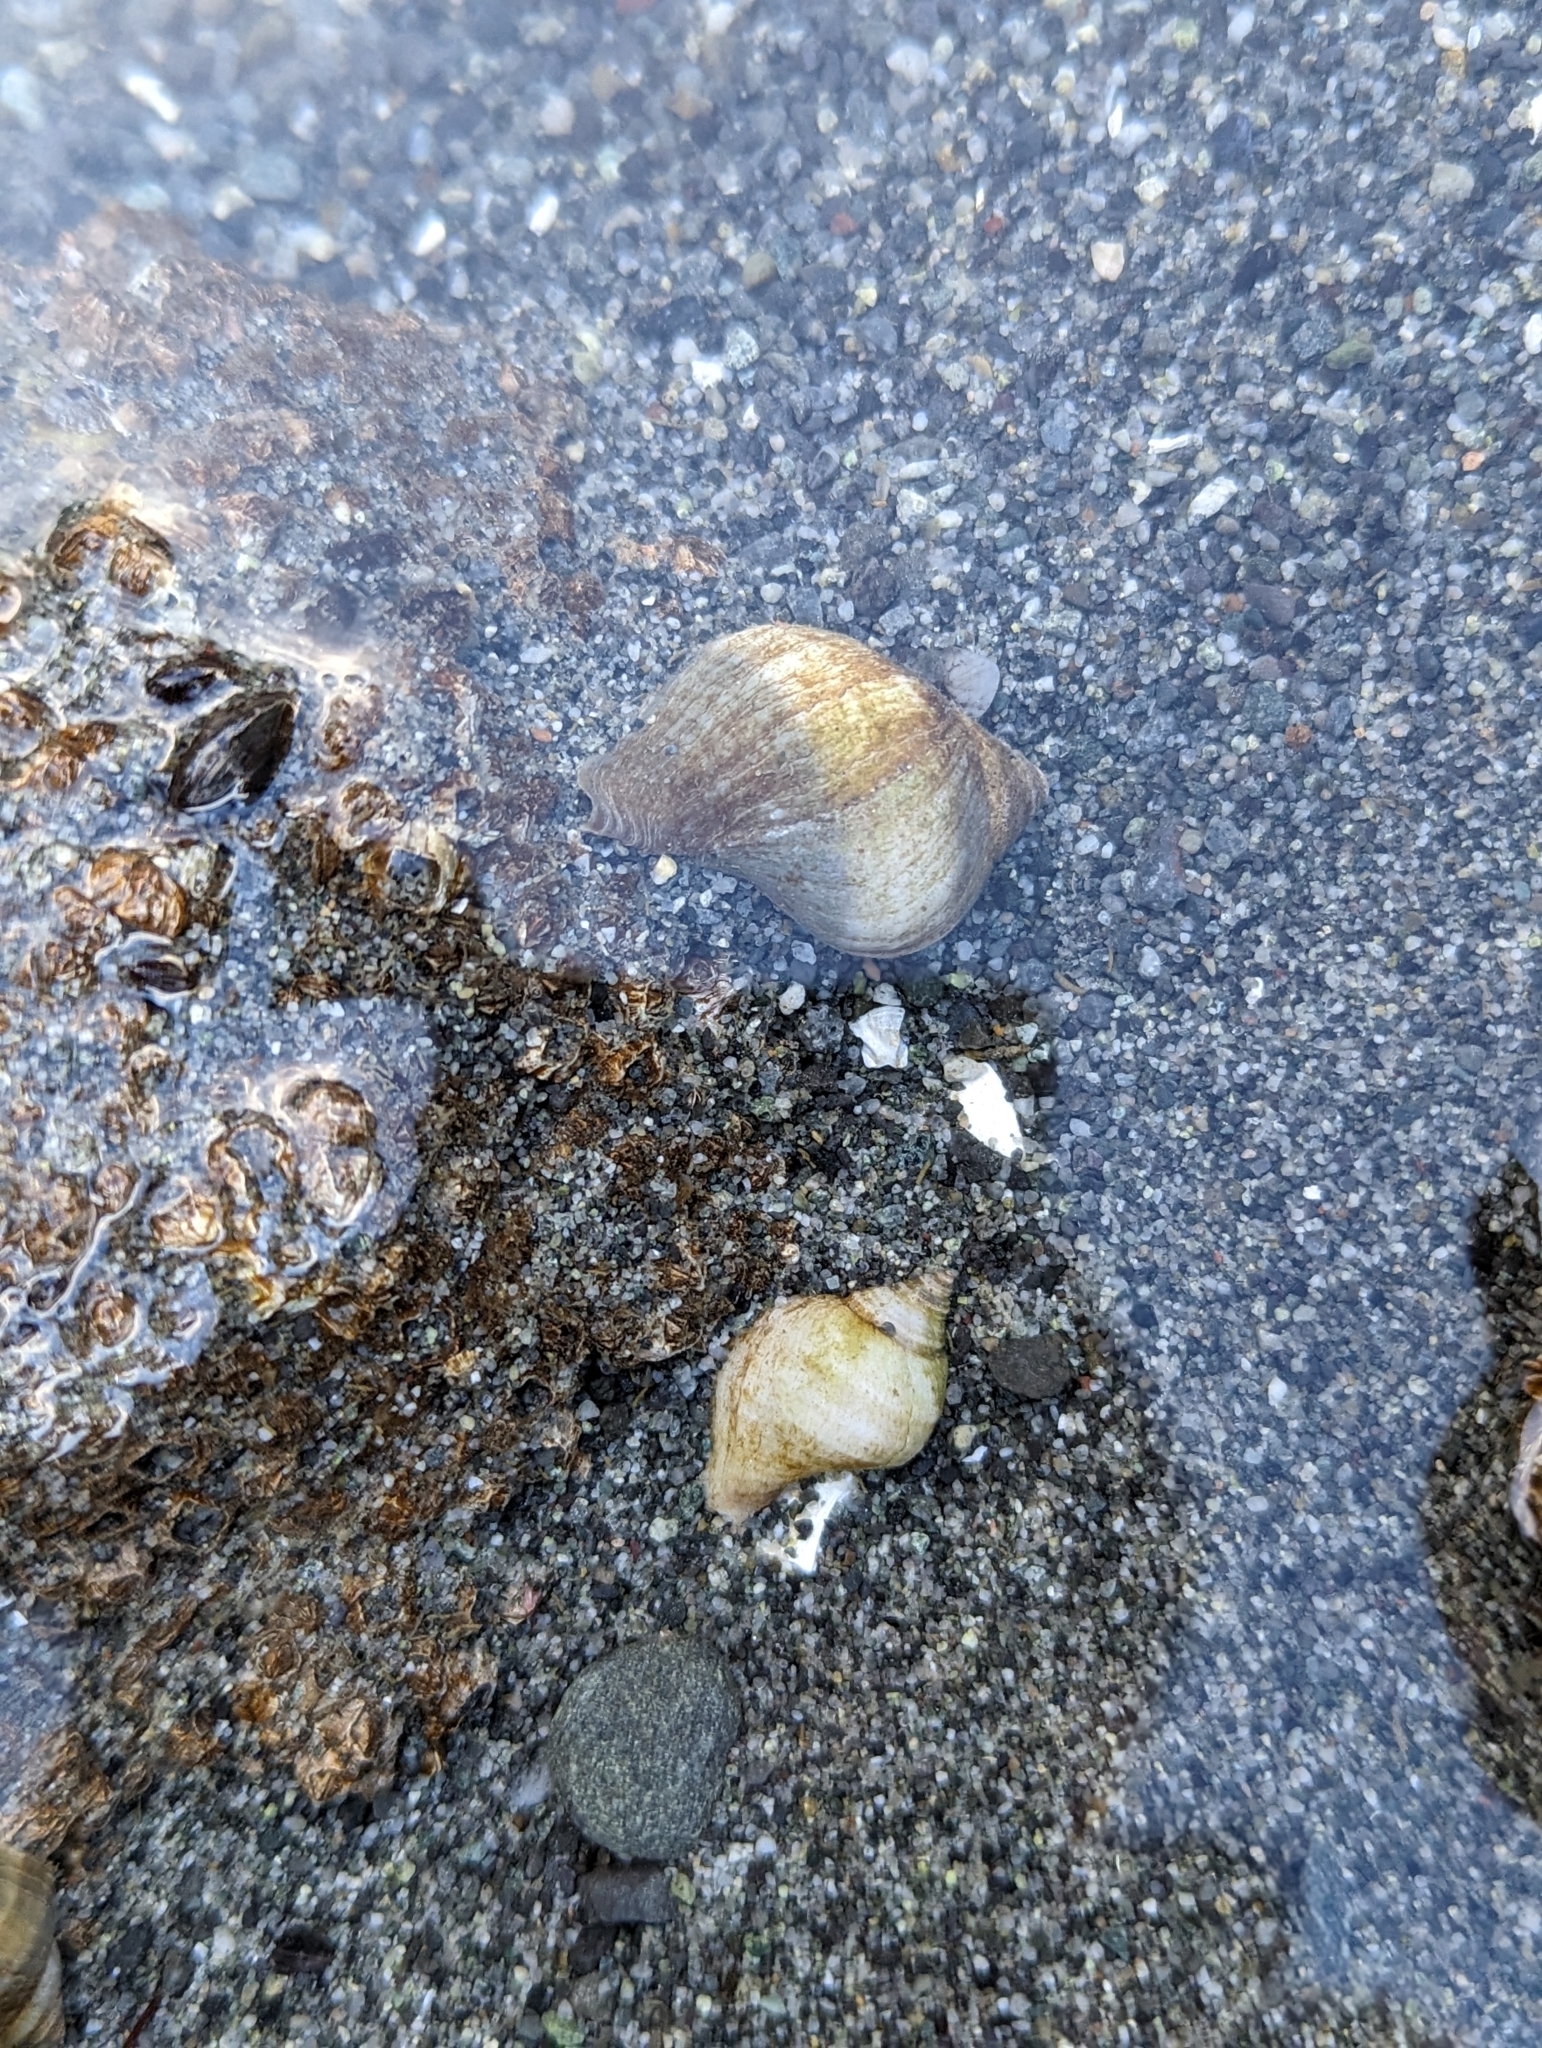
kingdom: Animalia
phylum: Mollusca
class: Gastropoda
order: Neogastropoda
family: Muricidae
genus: Nucella
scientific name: Nucella lamellosa
